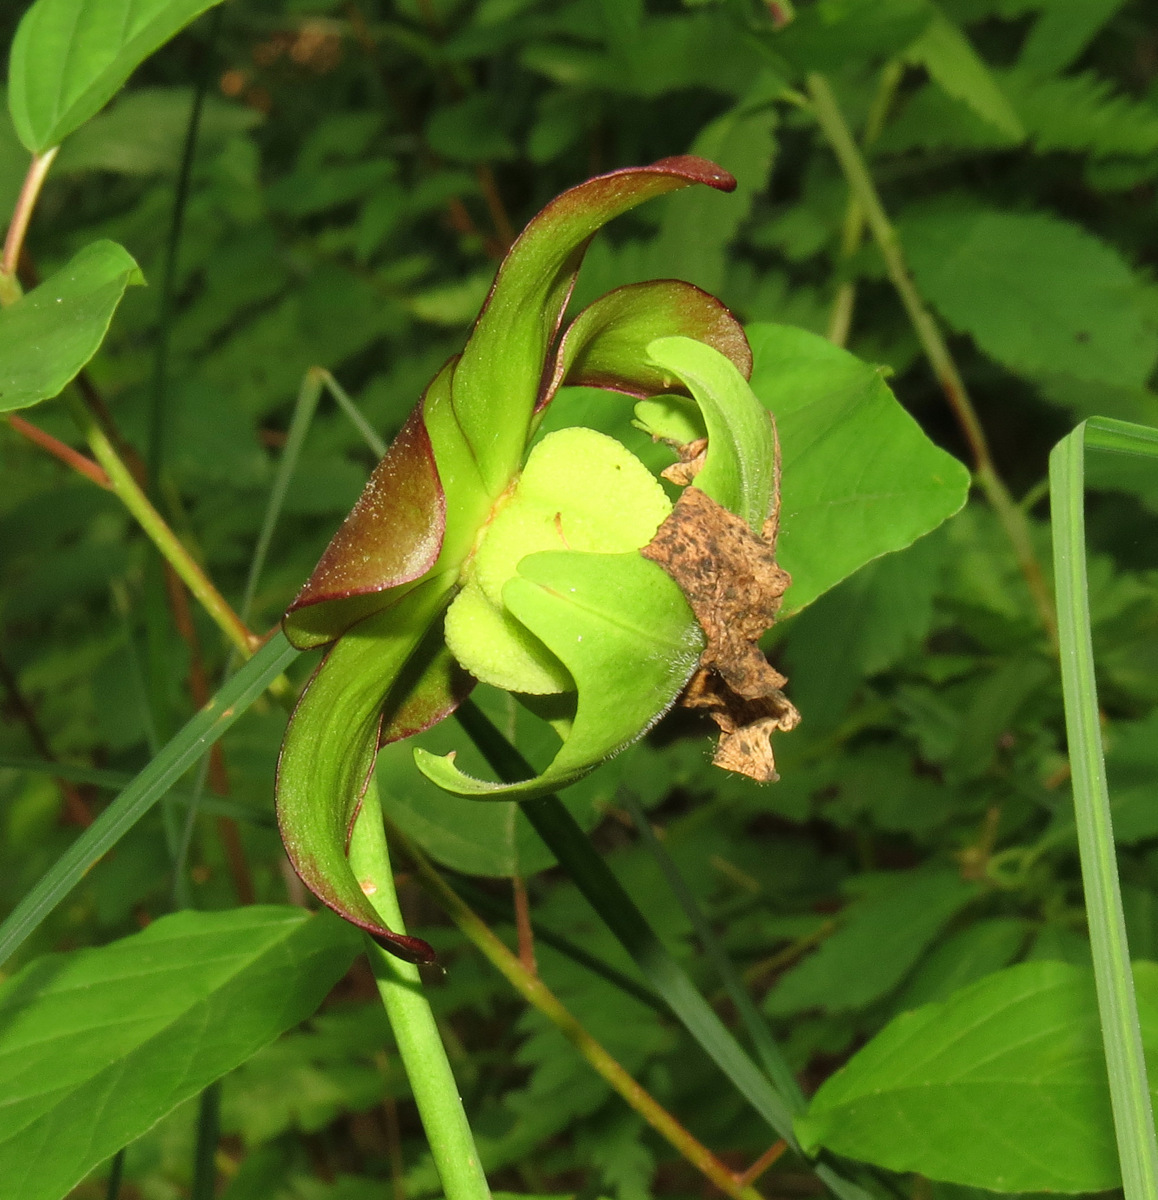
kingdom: Plantae
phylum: Tracheophyta
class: Magnoliopsida
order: Ericales
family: Sarraceniaceae
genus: Sarracenia
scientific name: Sarracenia purpurea
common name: Pitcherplant
